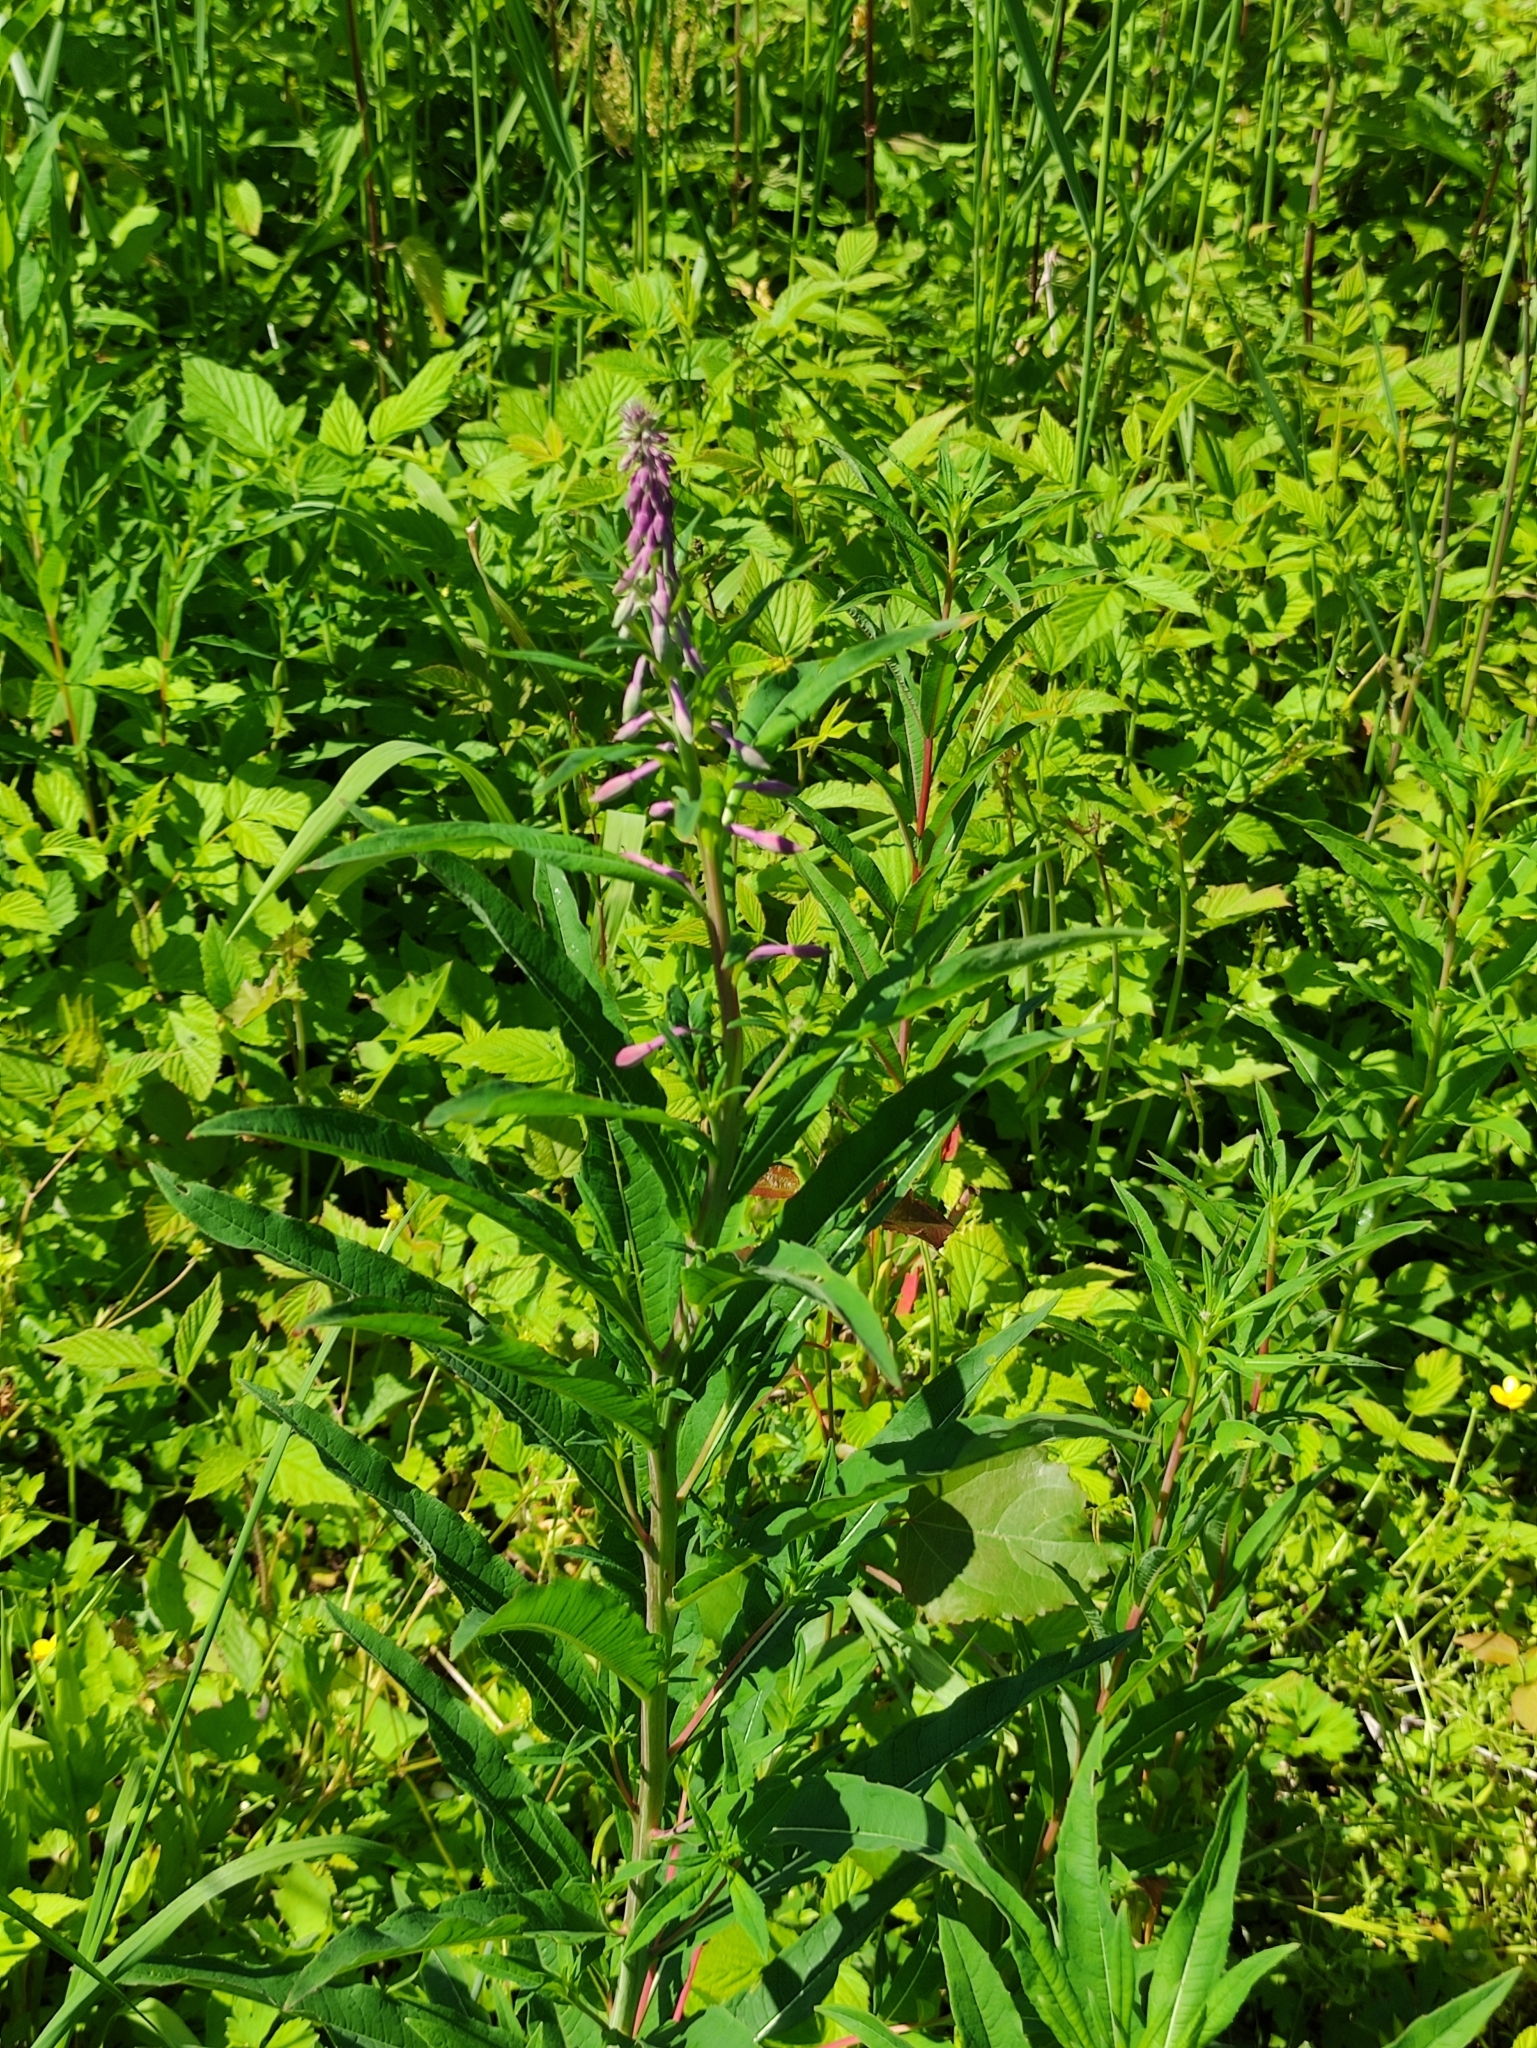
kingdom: Plantae
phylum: Tracheophyta
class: Magnoliopsida
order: Myrtales
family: Onagraceae
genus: Chamaenerion
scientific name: Chamaenerion angustifolium
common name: Fireweed
